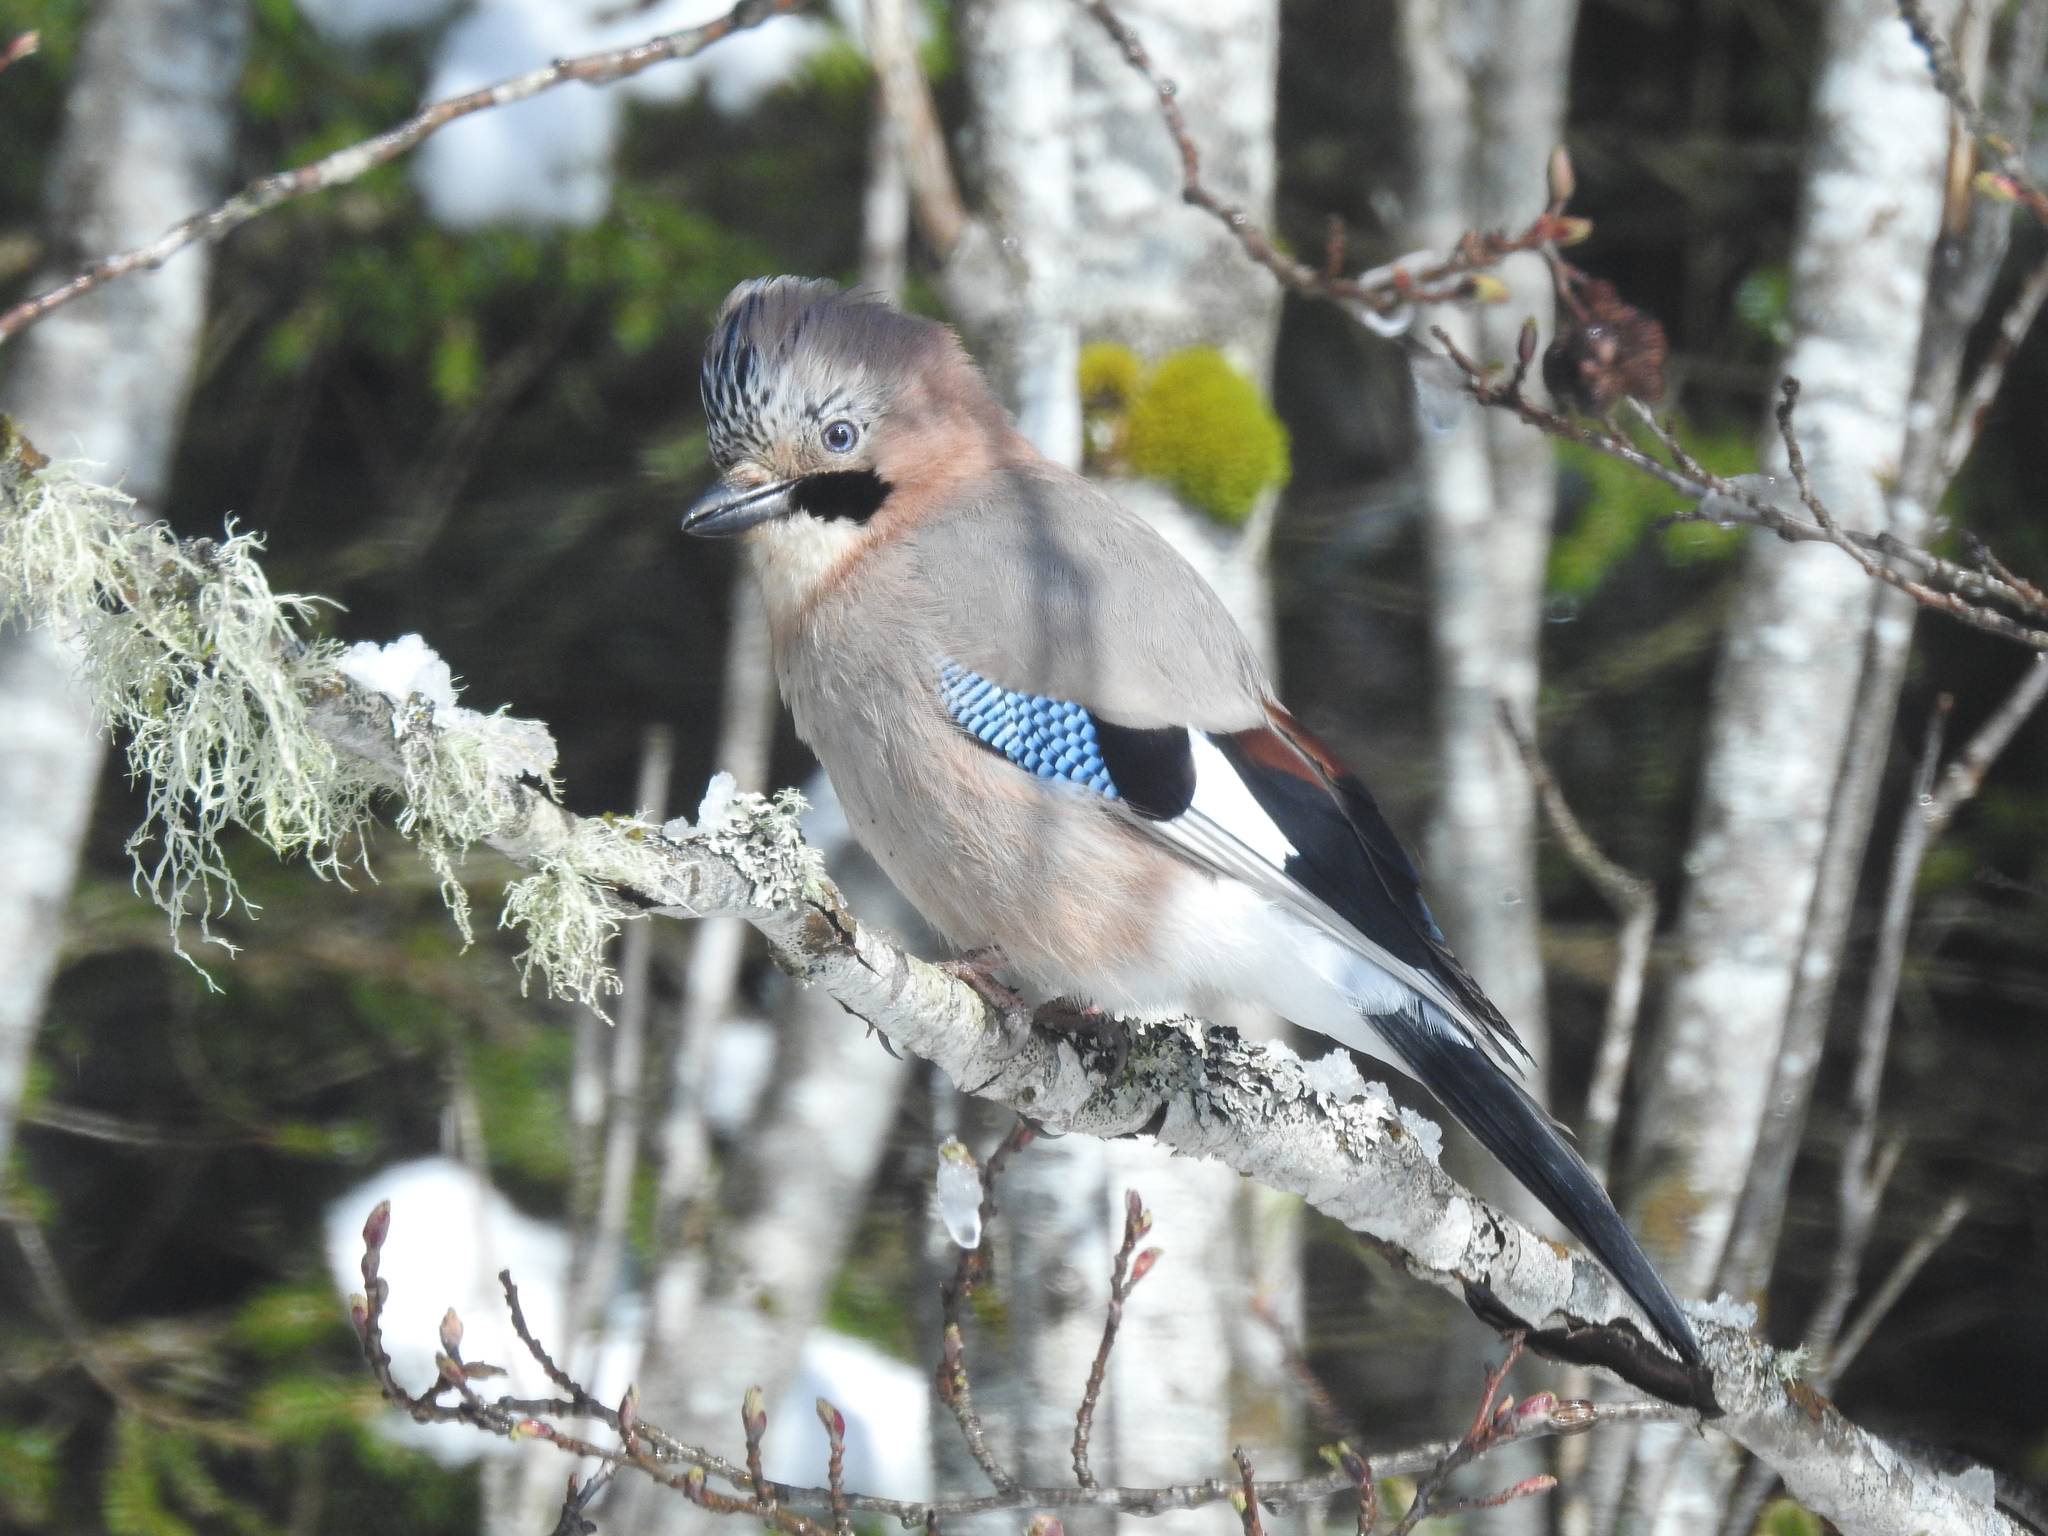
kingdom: Animalia
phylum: Chordata
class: Aves
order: Passeriformes
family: Corvidae
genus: Garrulus
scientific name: Garrulus glandarius
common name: Eurasian jay
